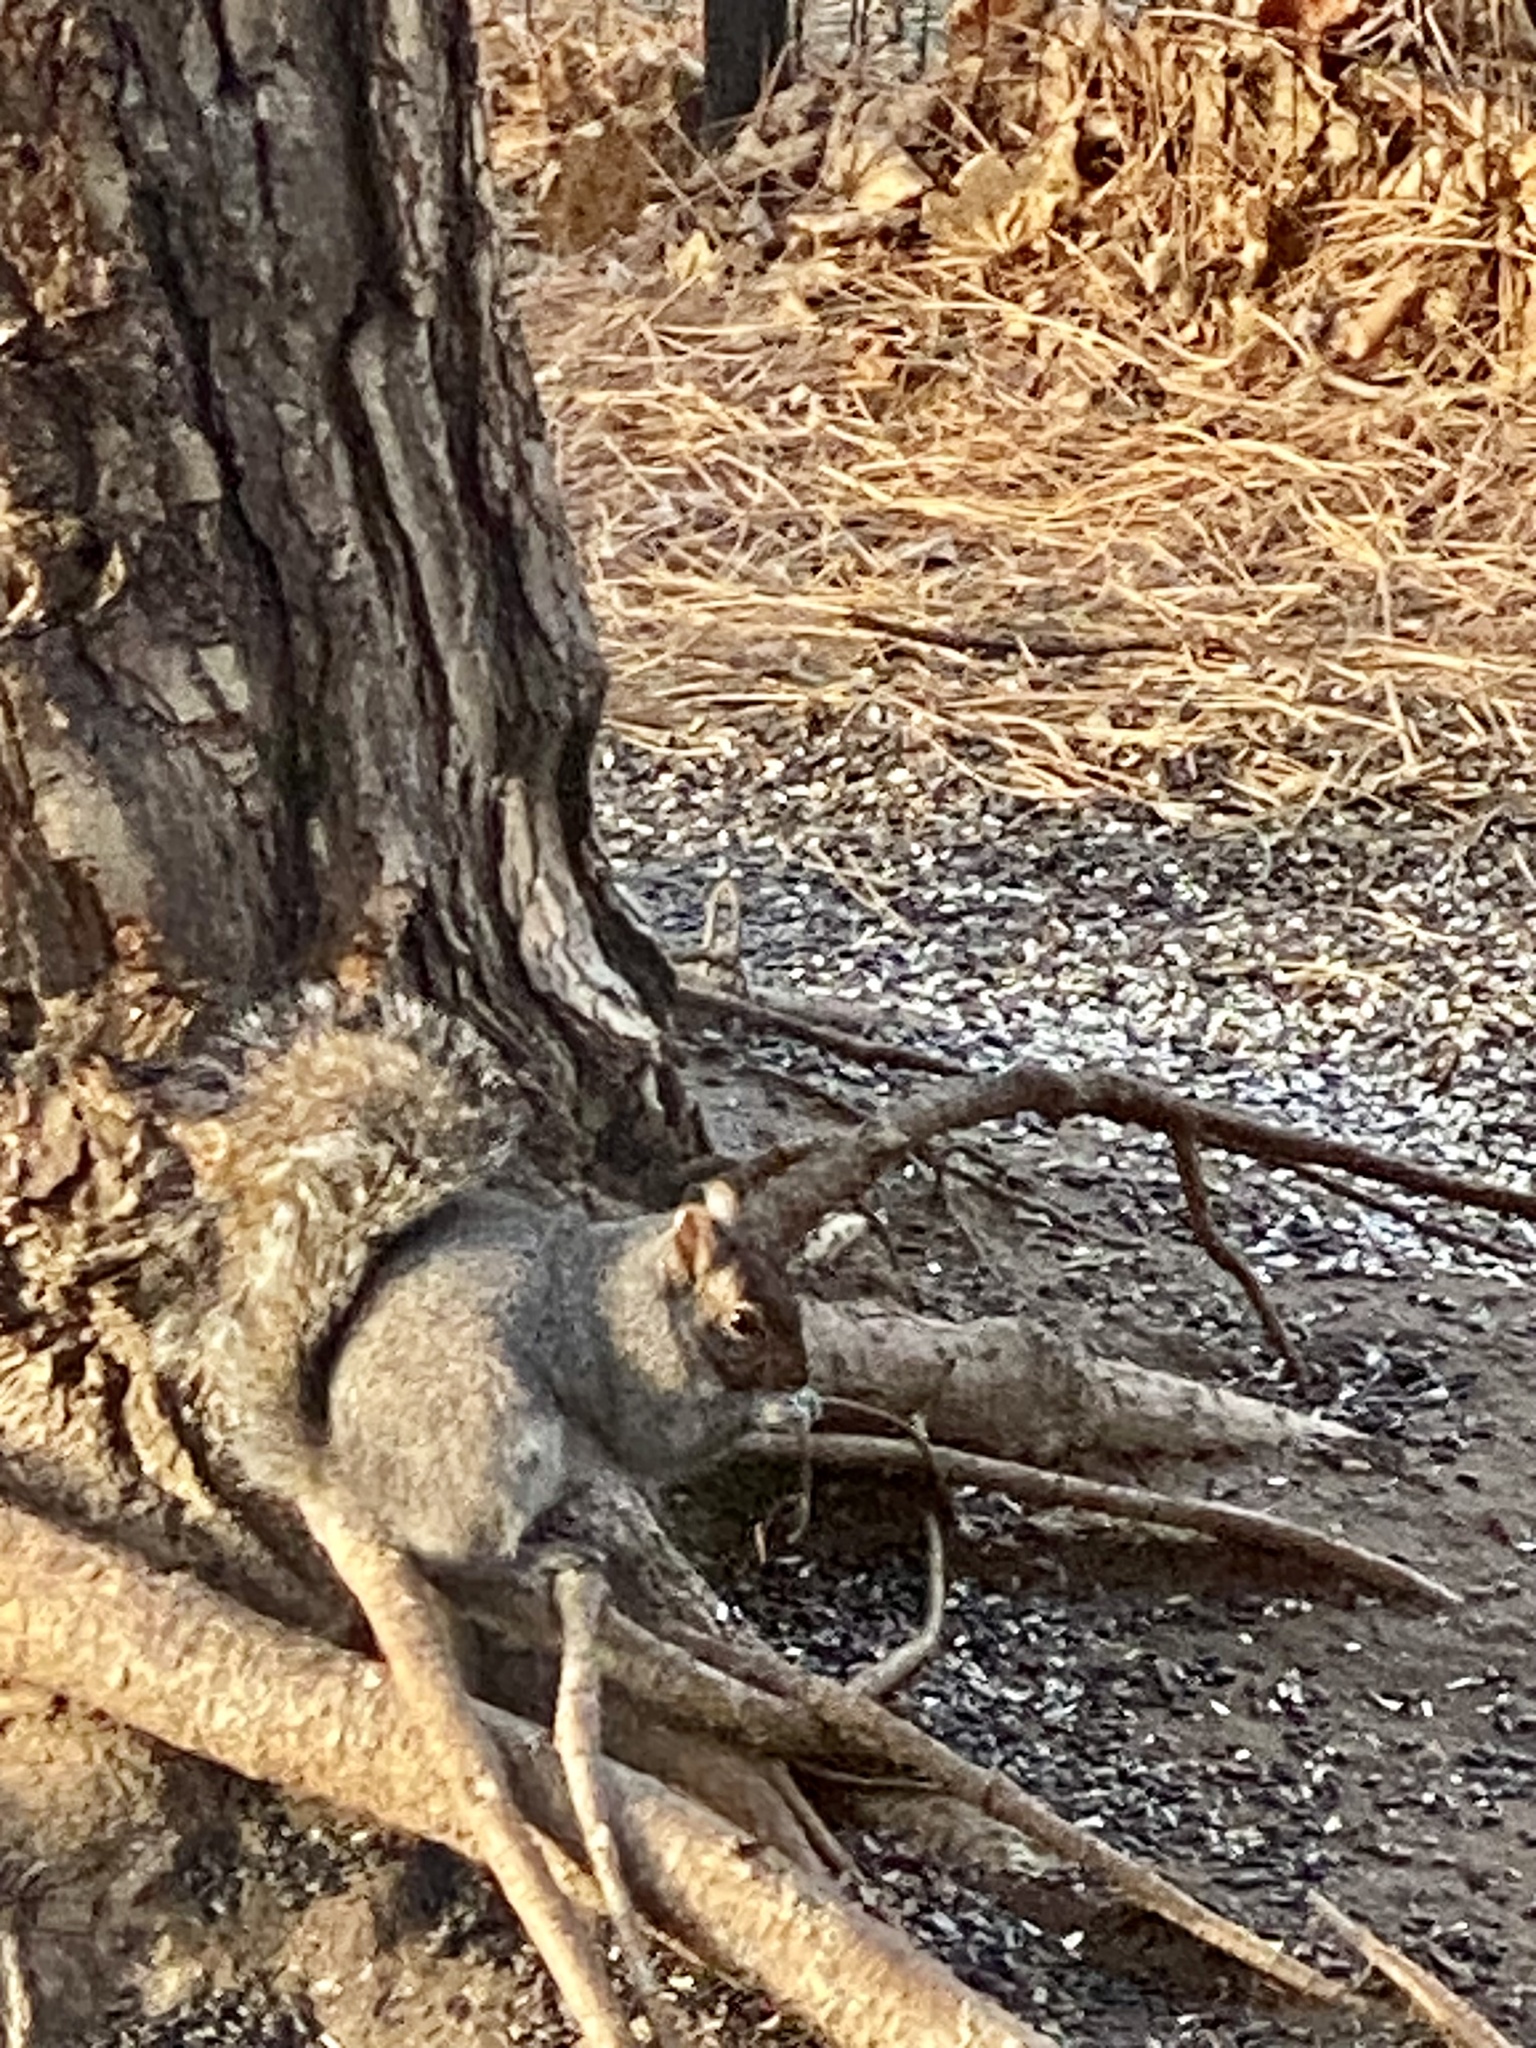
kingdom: Animalia
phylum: Chordata
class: Mammalia
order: Rodentia
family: Sciuridae
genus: Sciurus
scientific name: Sciurus carolinensis
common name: Eastern gray squirrel
